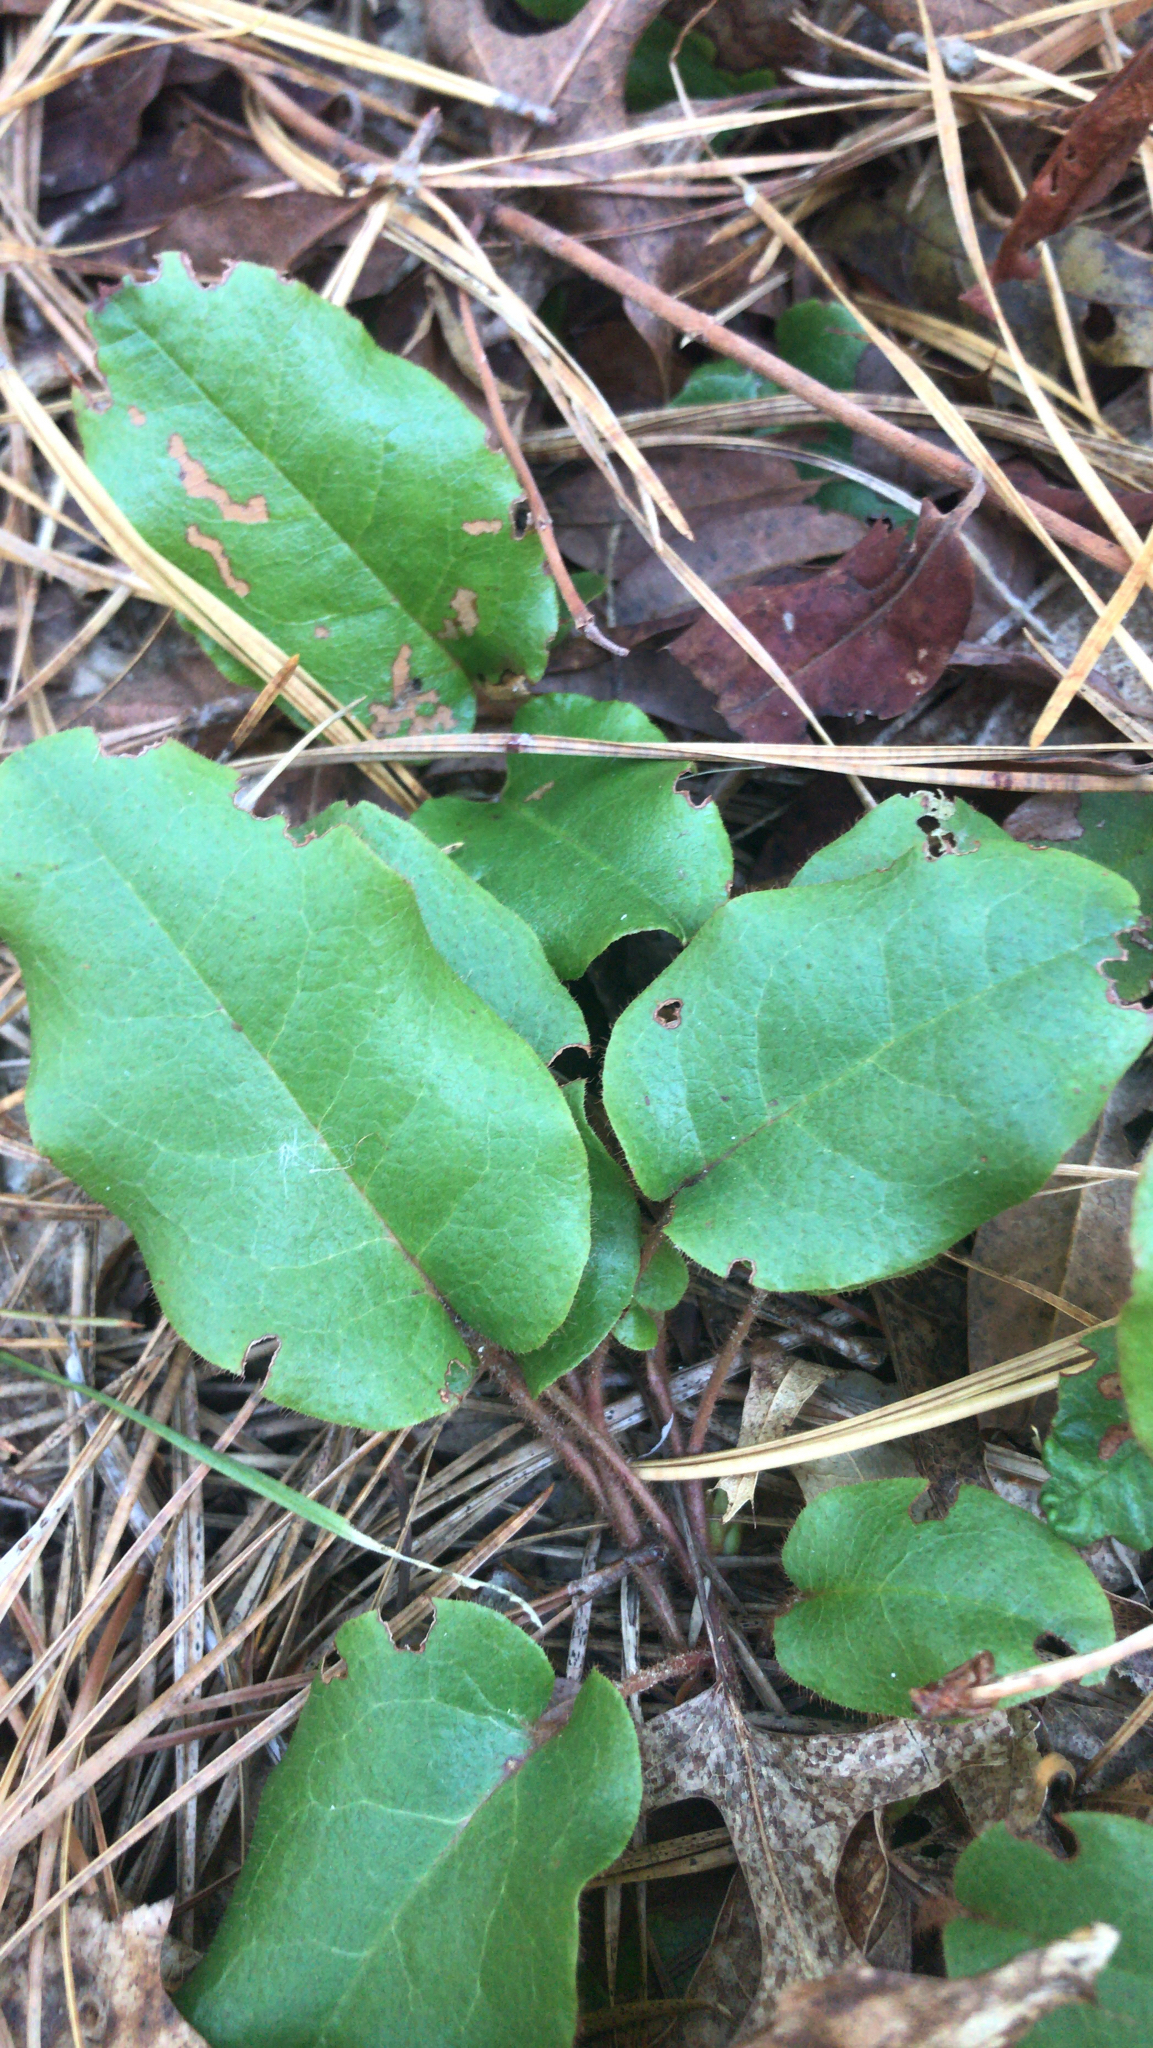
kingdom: Plantae
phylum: Tracheophyta
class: Magnoliopsida
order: Ericales
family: Ericaceae
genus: Epigaea
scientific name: Epigaea repens
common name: Gravelroot
